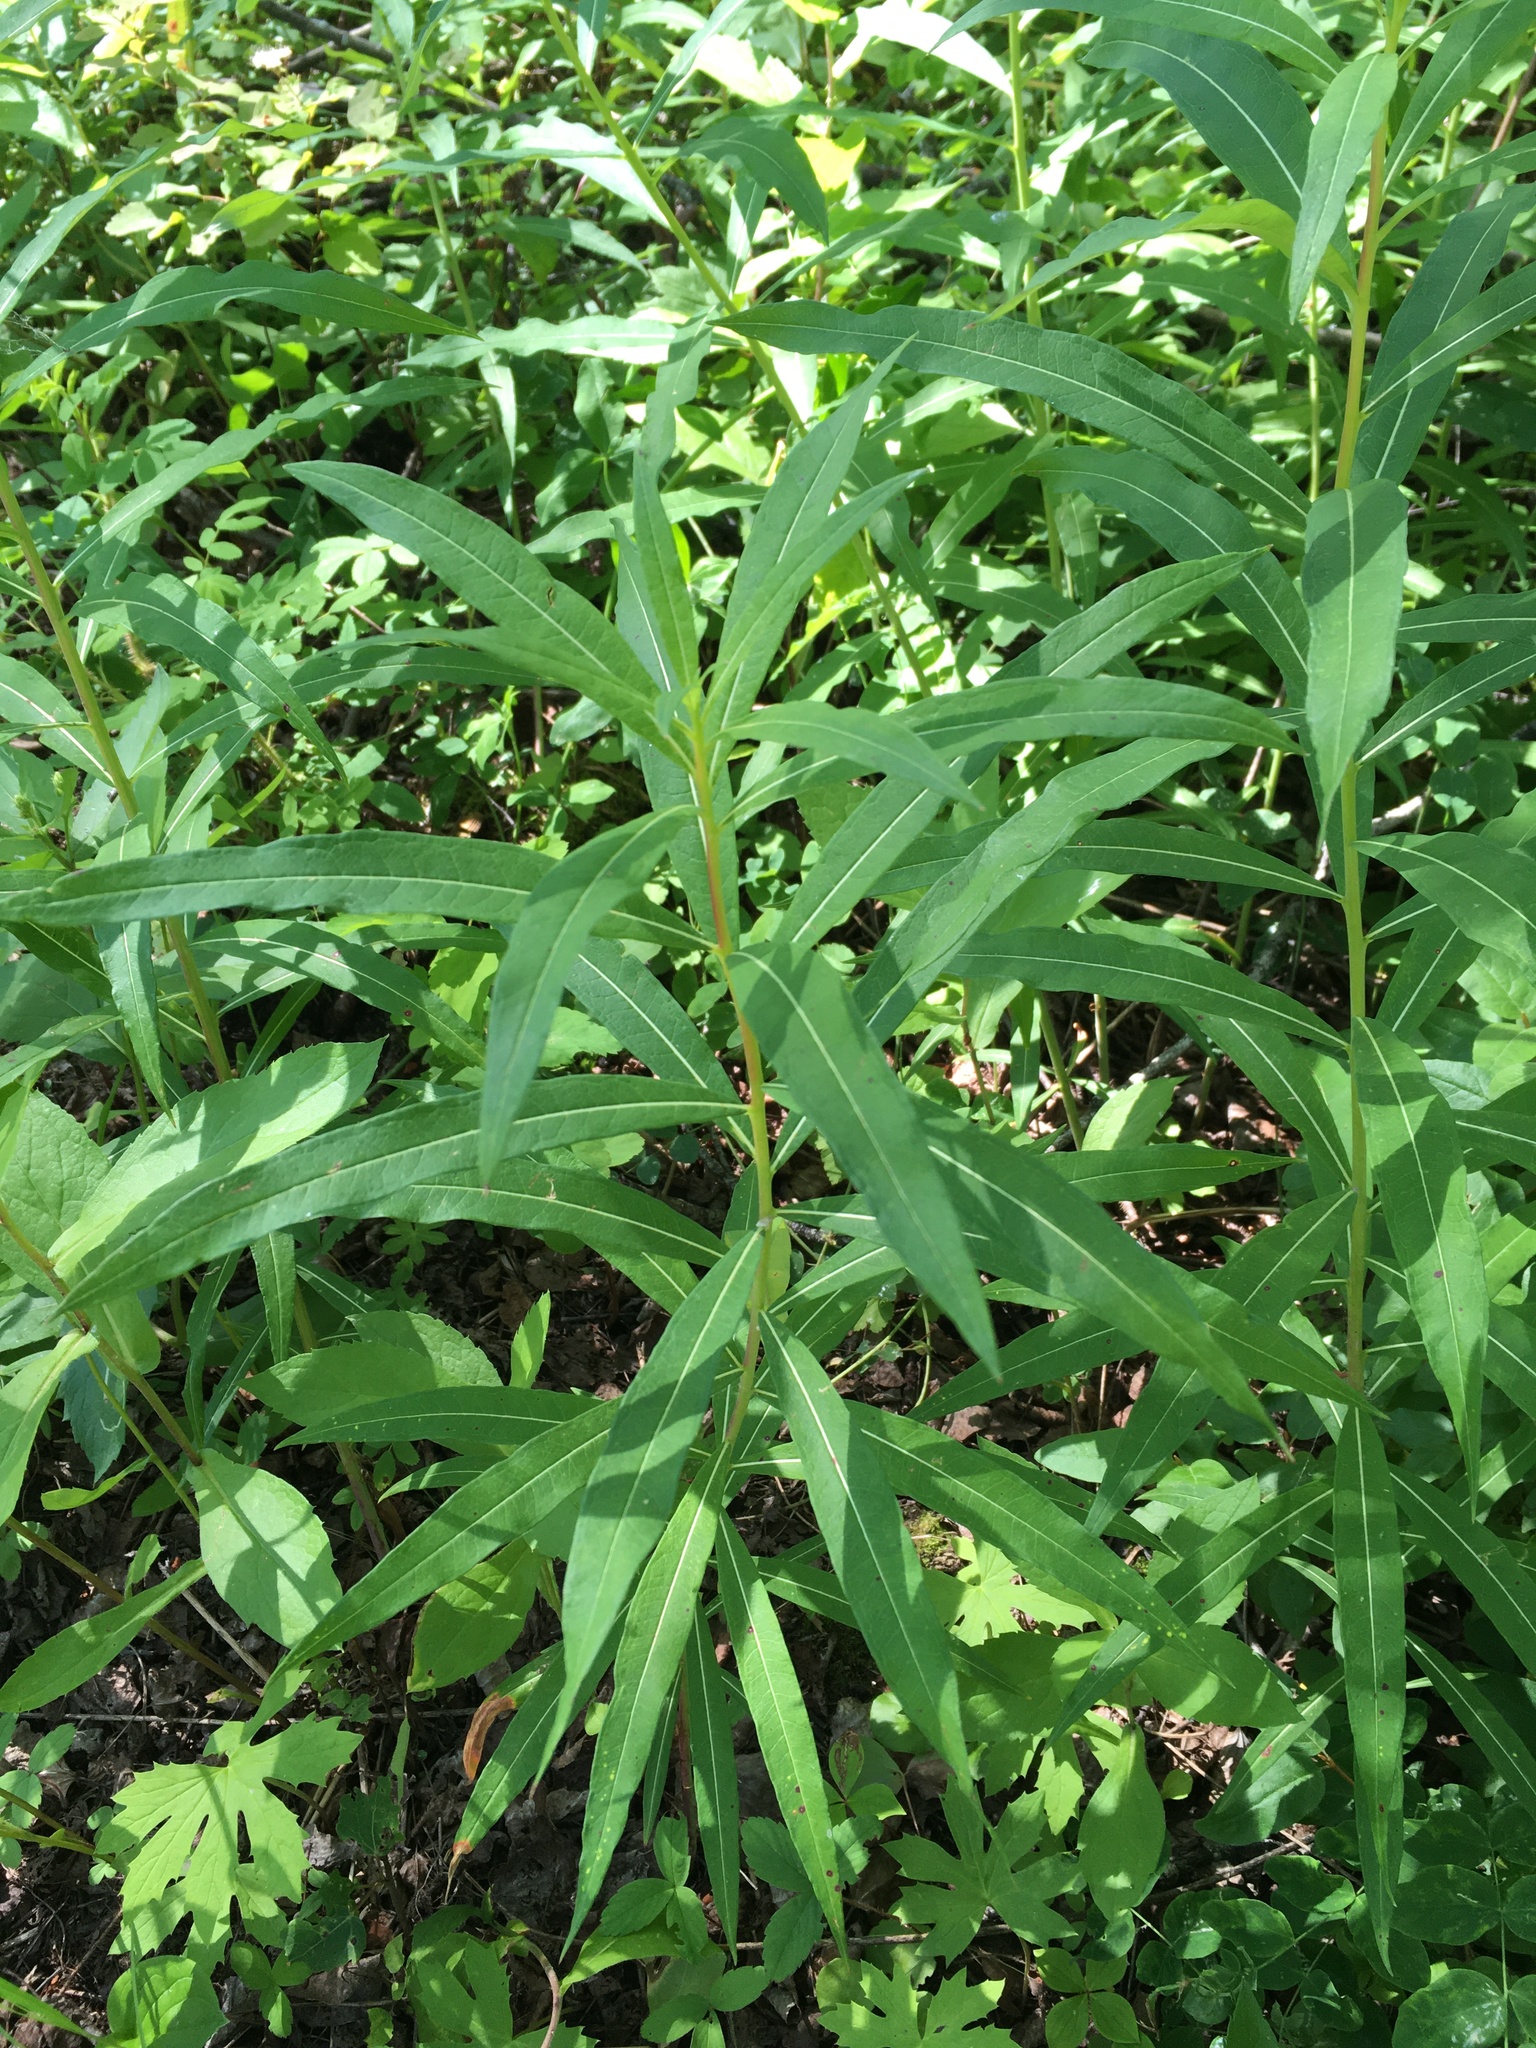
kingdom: Plantae
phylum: Tracheophyta
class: Magnoliopsida
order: Myrtales
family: Onagraceae
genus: Chamaenerion
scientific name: Chamaenerion angustifolium
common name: Fireweed
